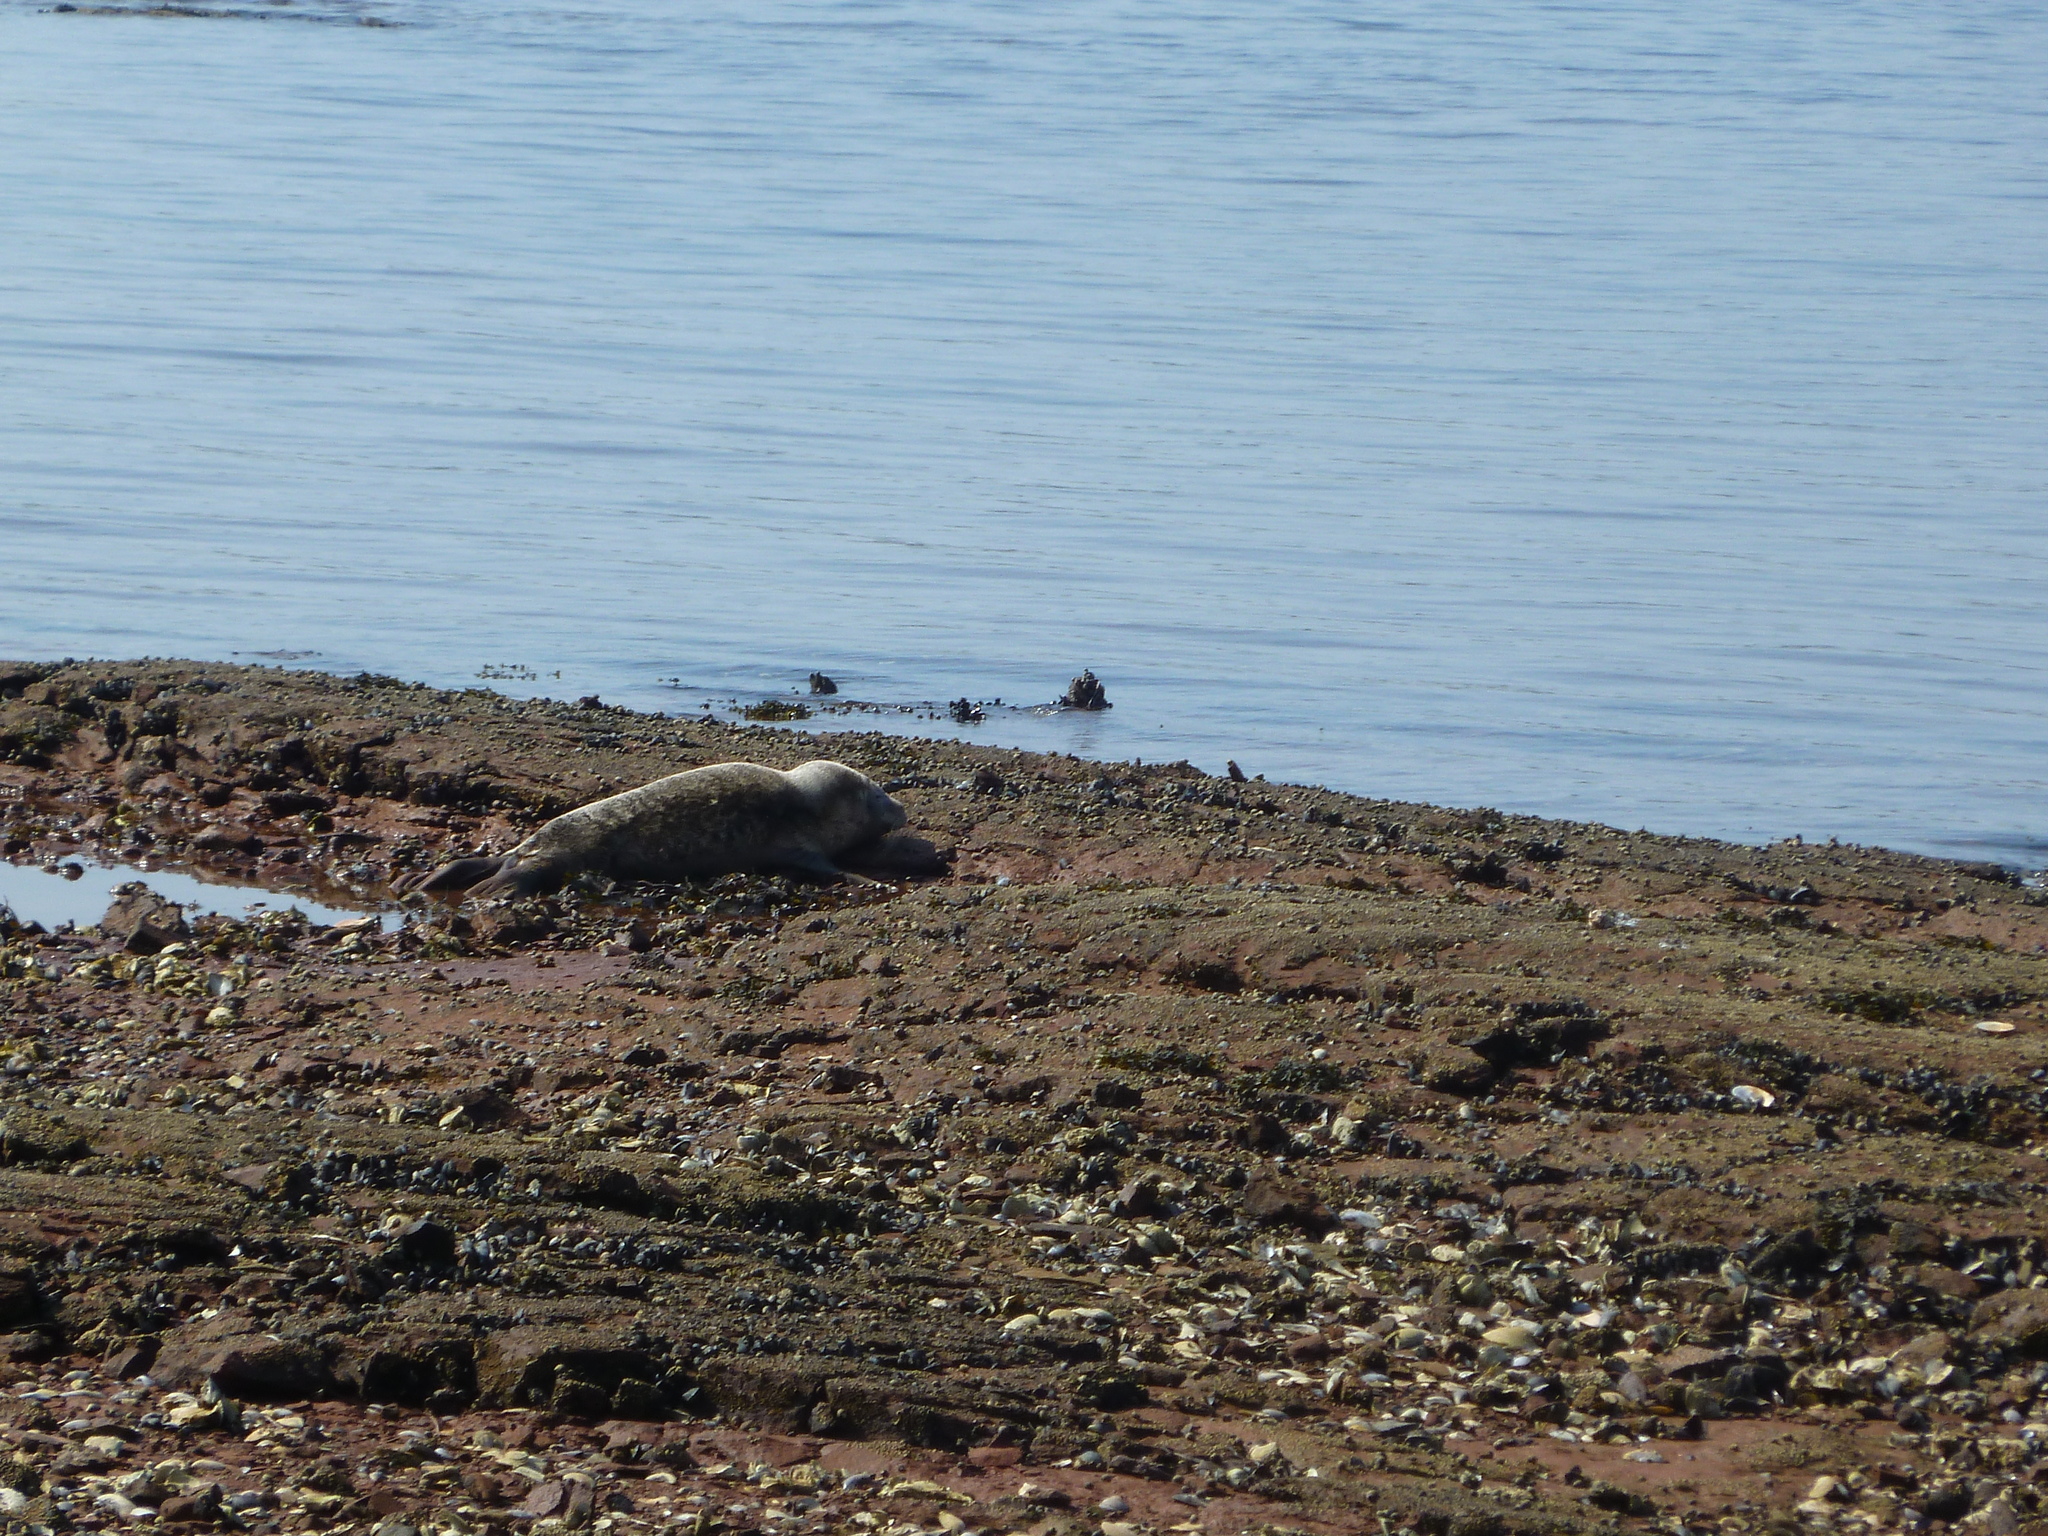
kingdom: Animalia
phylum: Chordata
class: Mammalia
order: Carnivora
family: Phocidae
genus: Phoca
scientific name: Phoca vitulina
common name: Harbor seal
